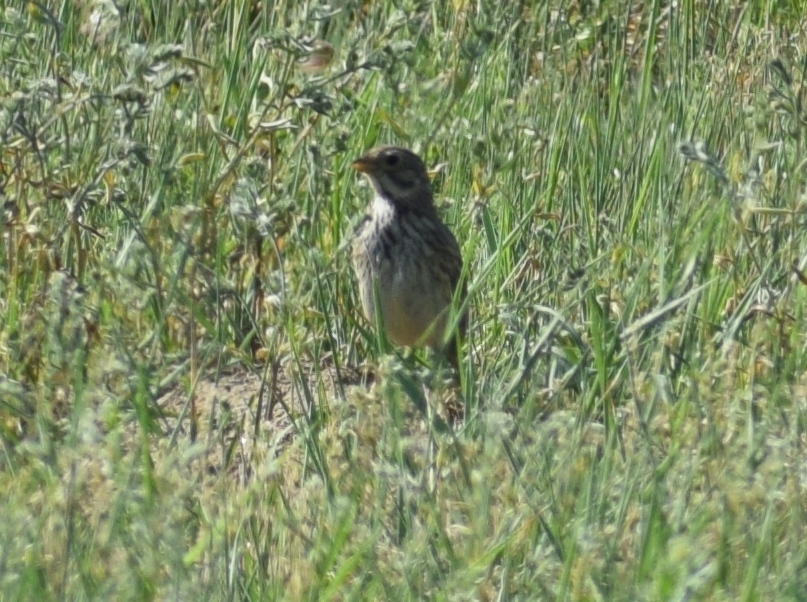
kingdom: Animalia
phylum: Chordata
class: Aves
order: Passeriformes
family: Emberizidae
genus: Emberiza
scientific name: Emberiza calandra
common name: Corn bunting
